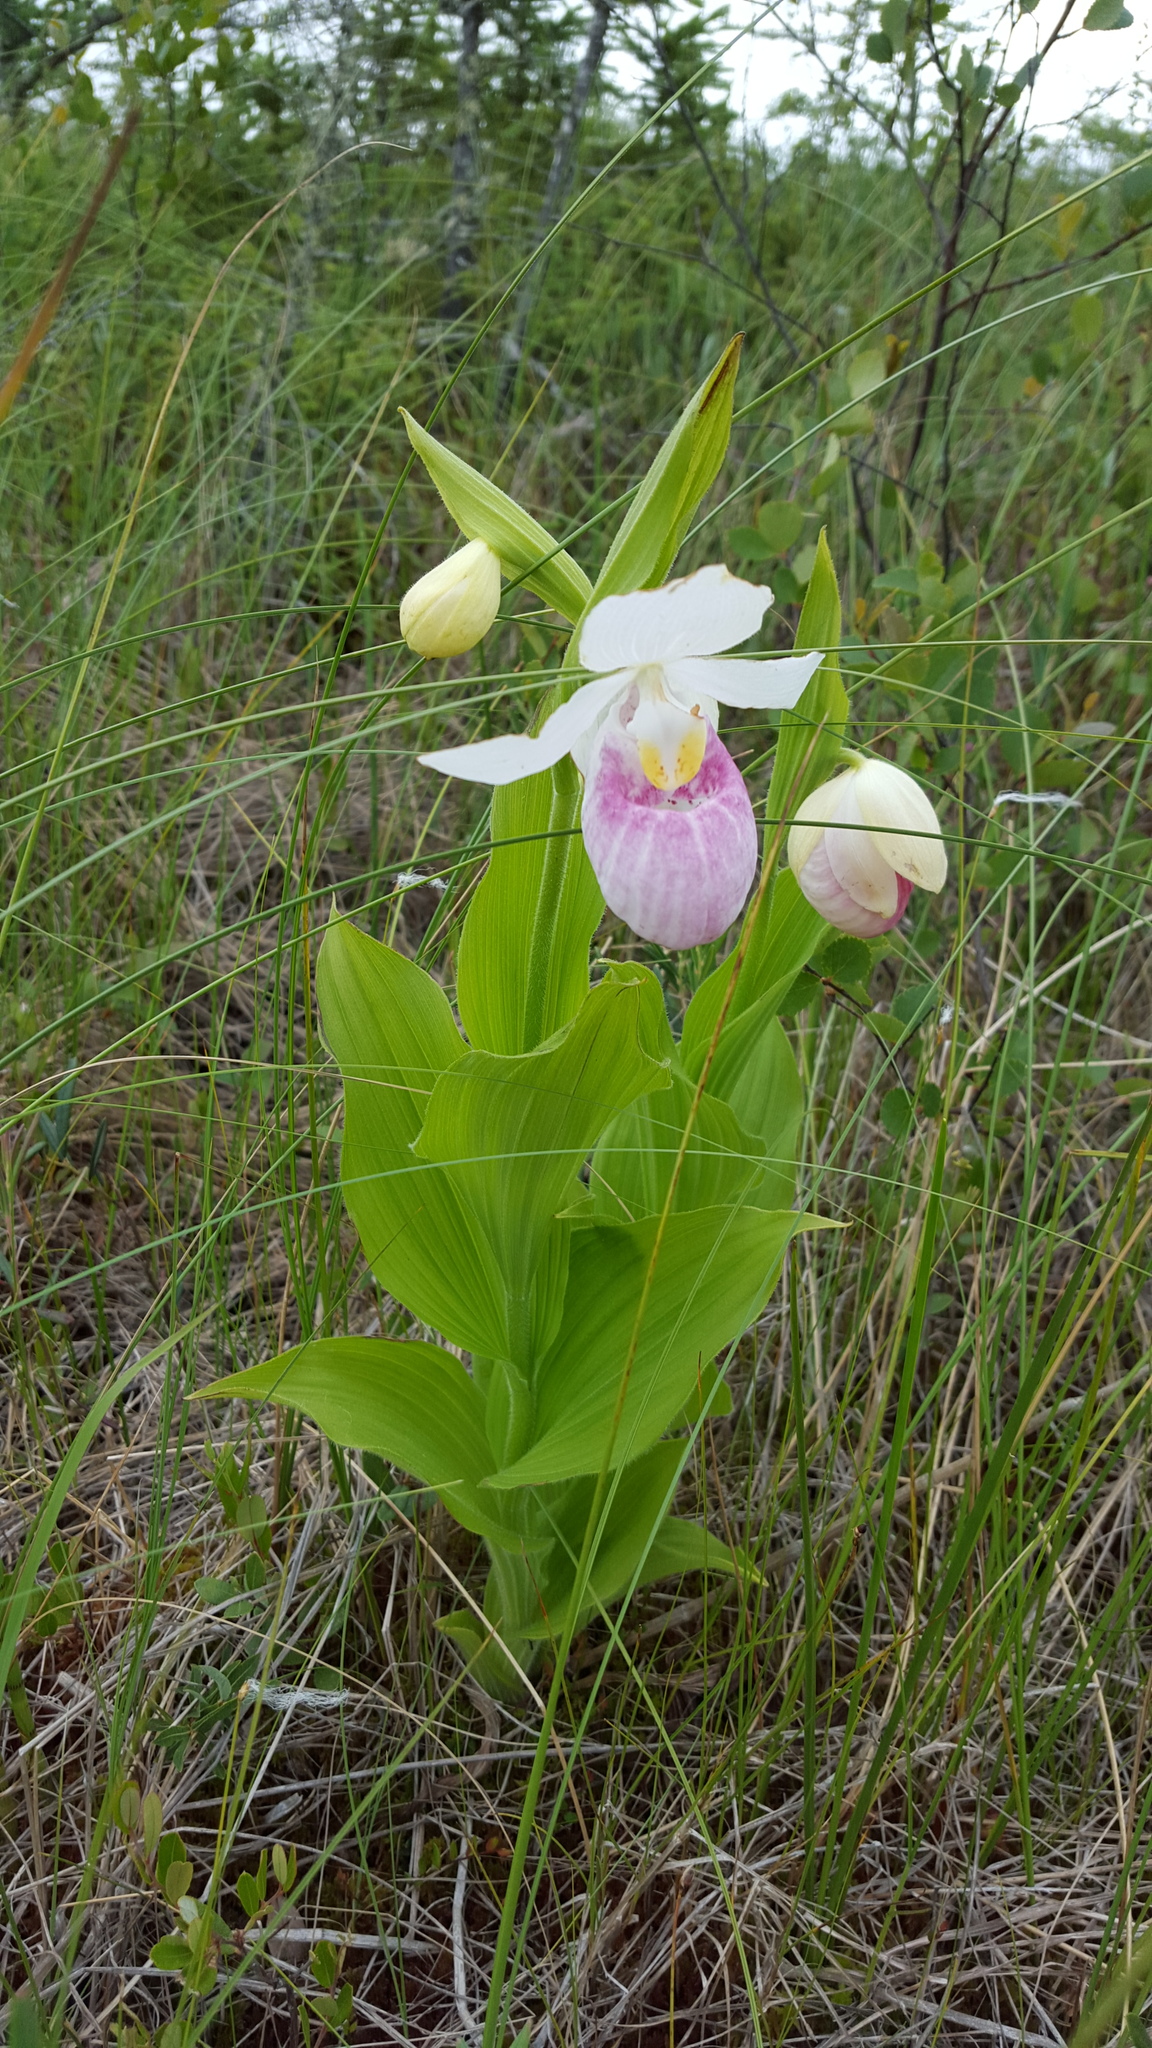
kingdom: Plantae
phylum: Tracheophyta
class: Liliopsida
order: Asparagales
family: Orchidaceae
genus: Cypripedium
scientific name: Cypripedium reginae
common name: Queen lady's-slipper
